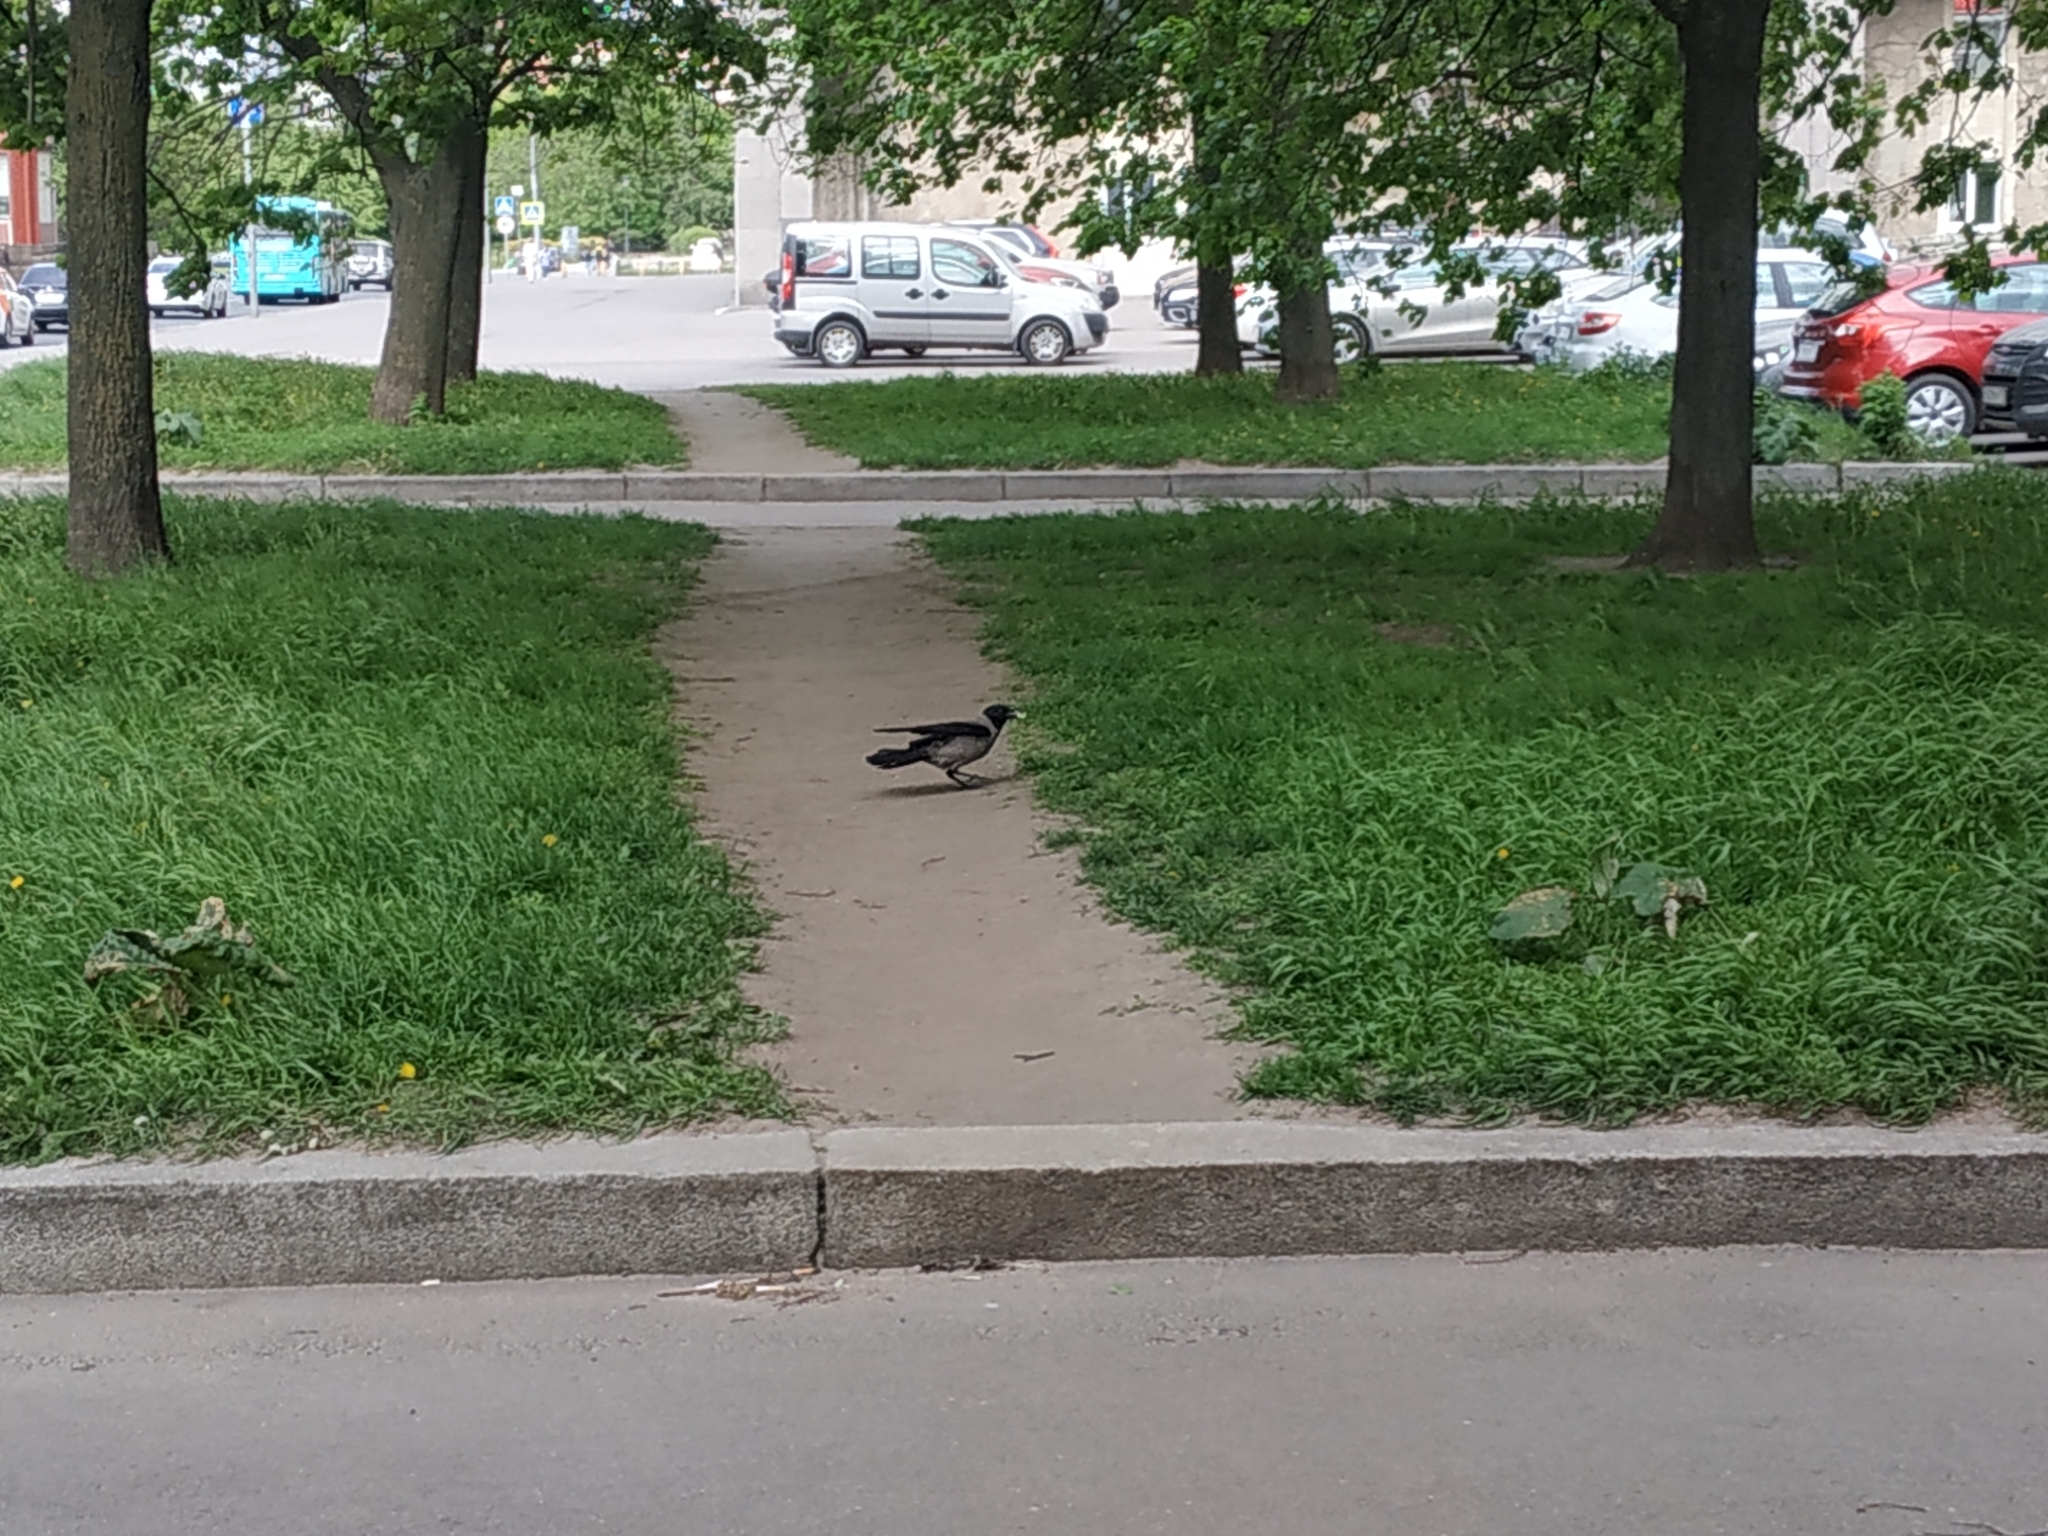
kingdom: Animalia
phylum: Chordata
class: Aves
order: Passeriformes
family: Corvidae
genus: Corvus
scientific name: Corvus cornix
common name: Hooded crow
